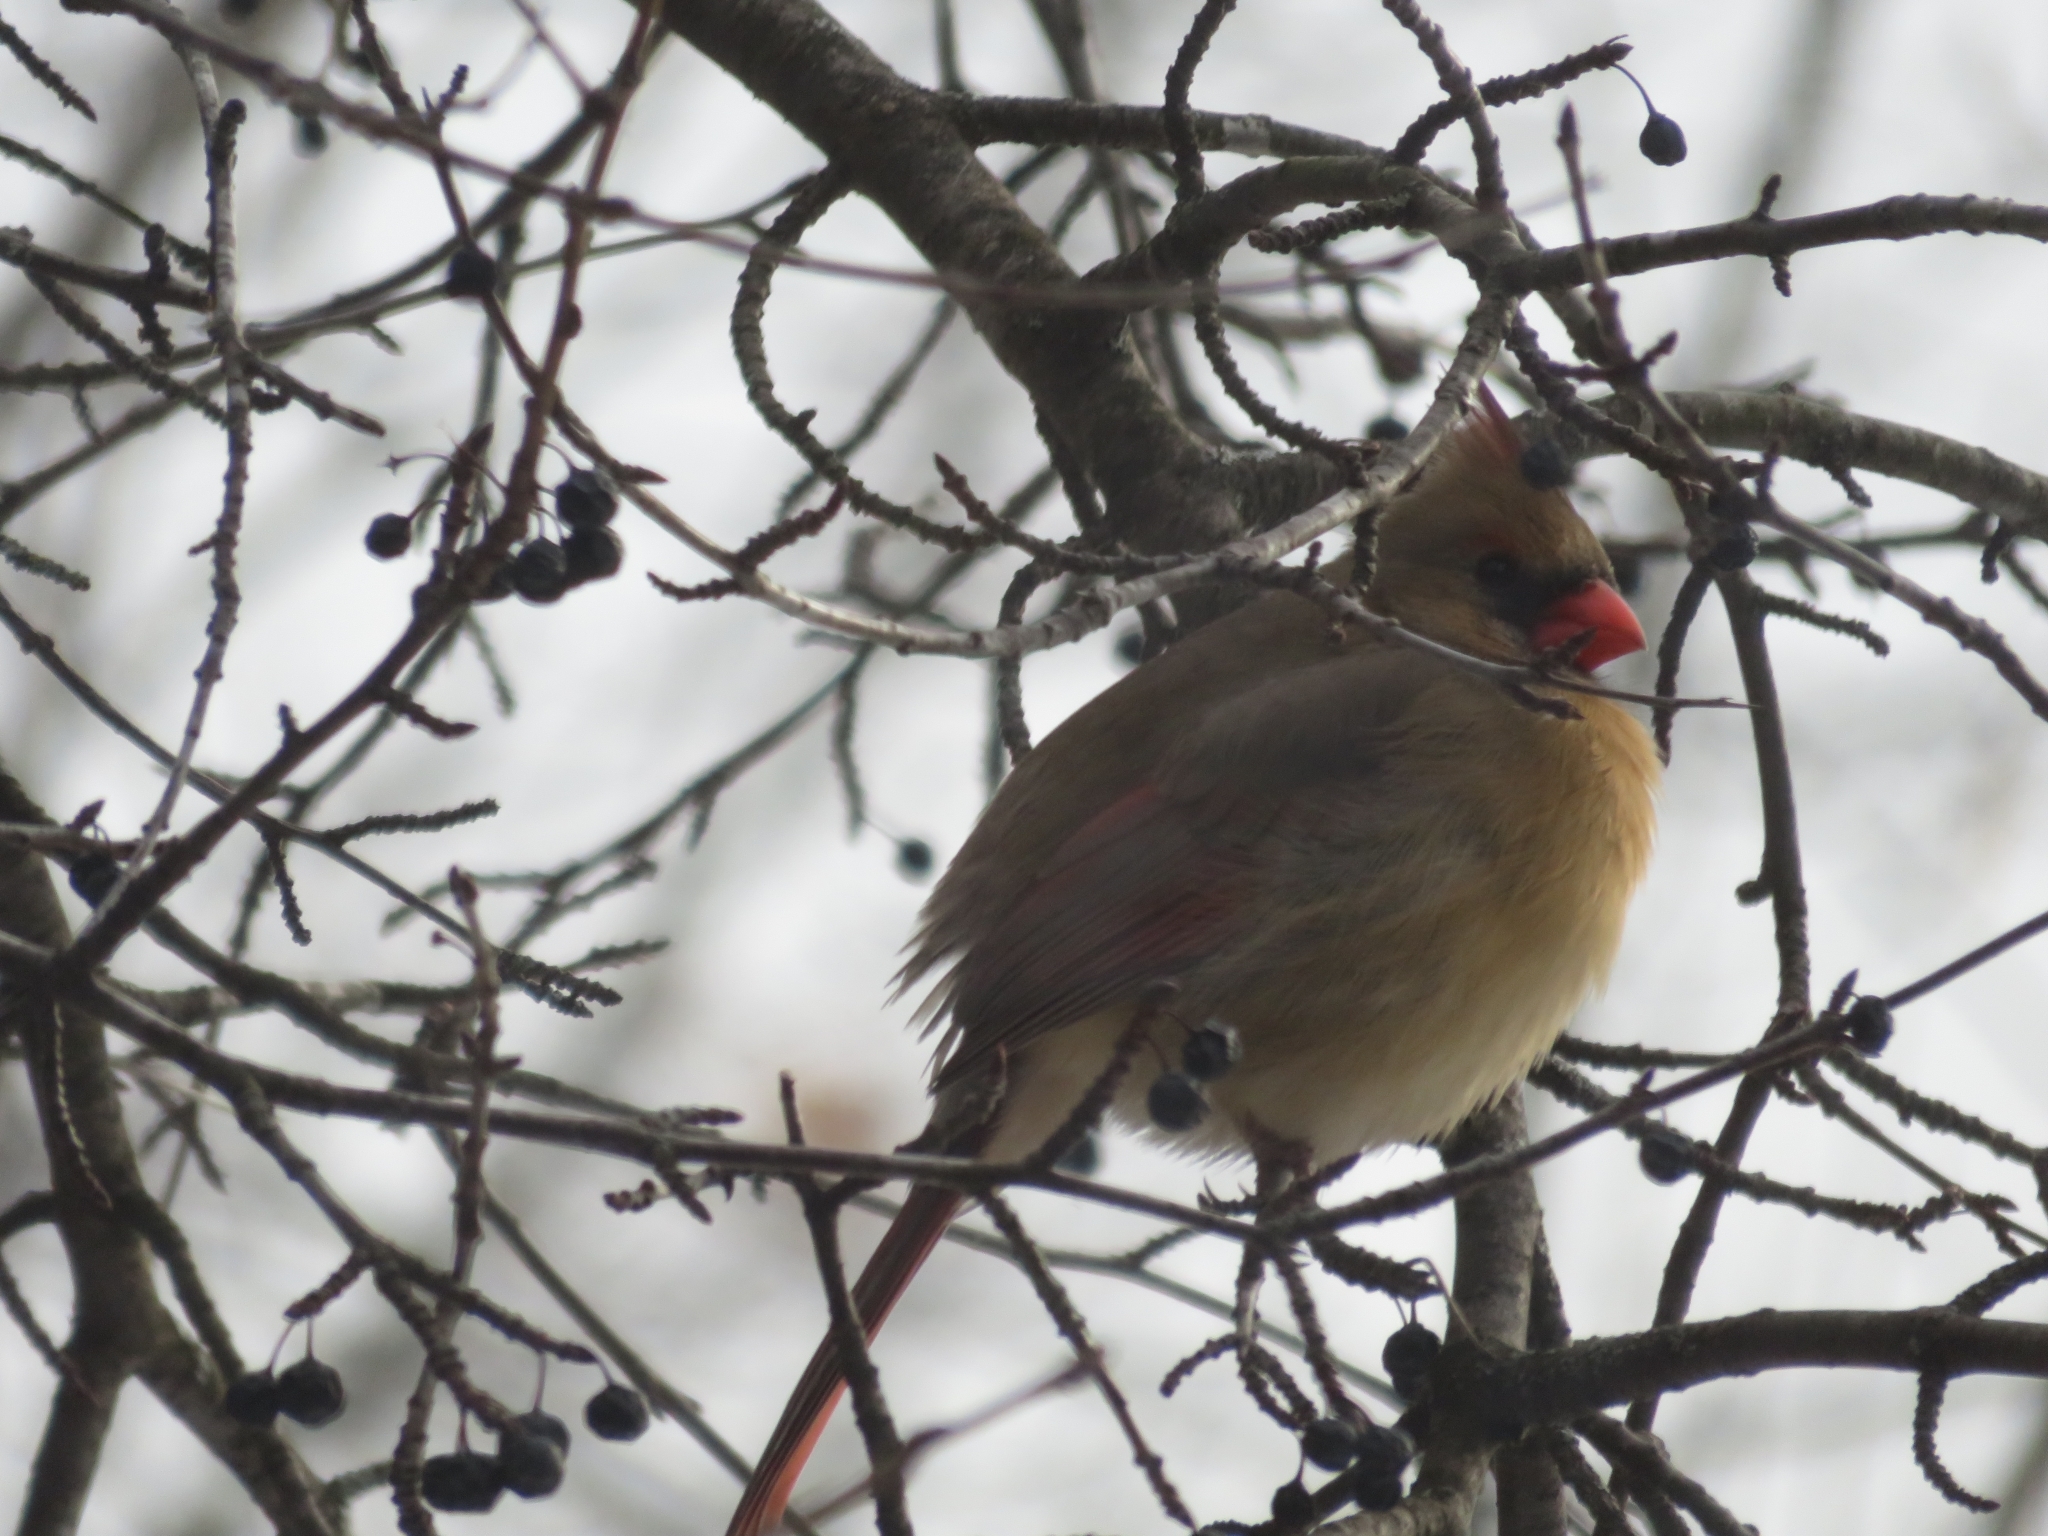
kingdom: Animalia
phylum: Chordata
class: Aves
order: Passeriformes
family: Cardinalidae
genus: Cardinalis
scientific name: Cardinalis cardinalis
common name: Northern cardinal
